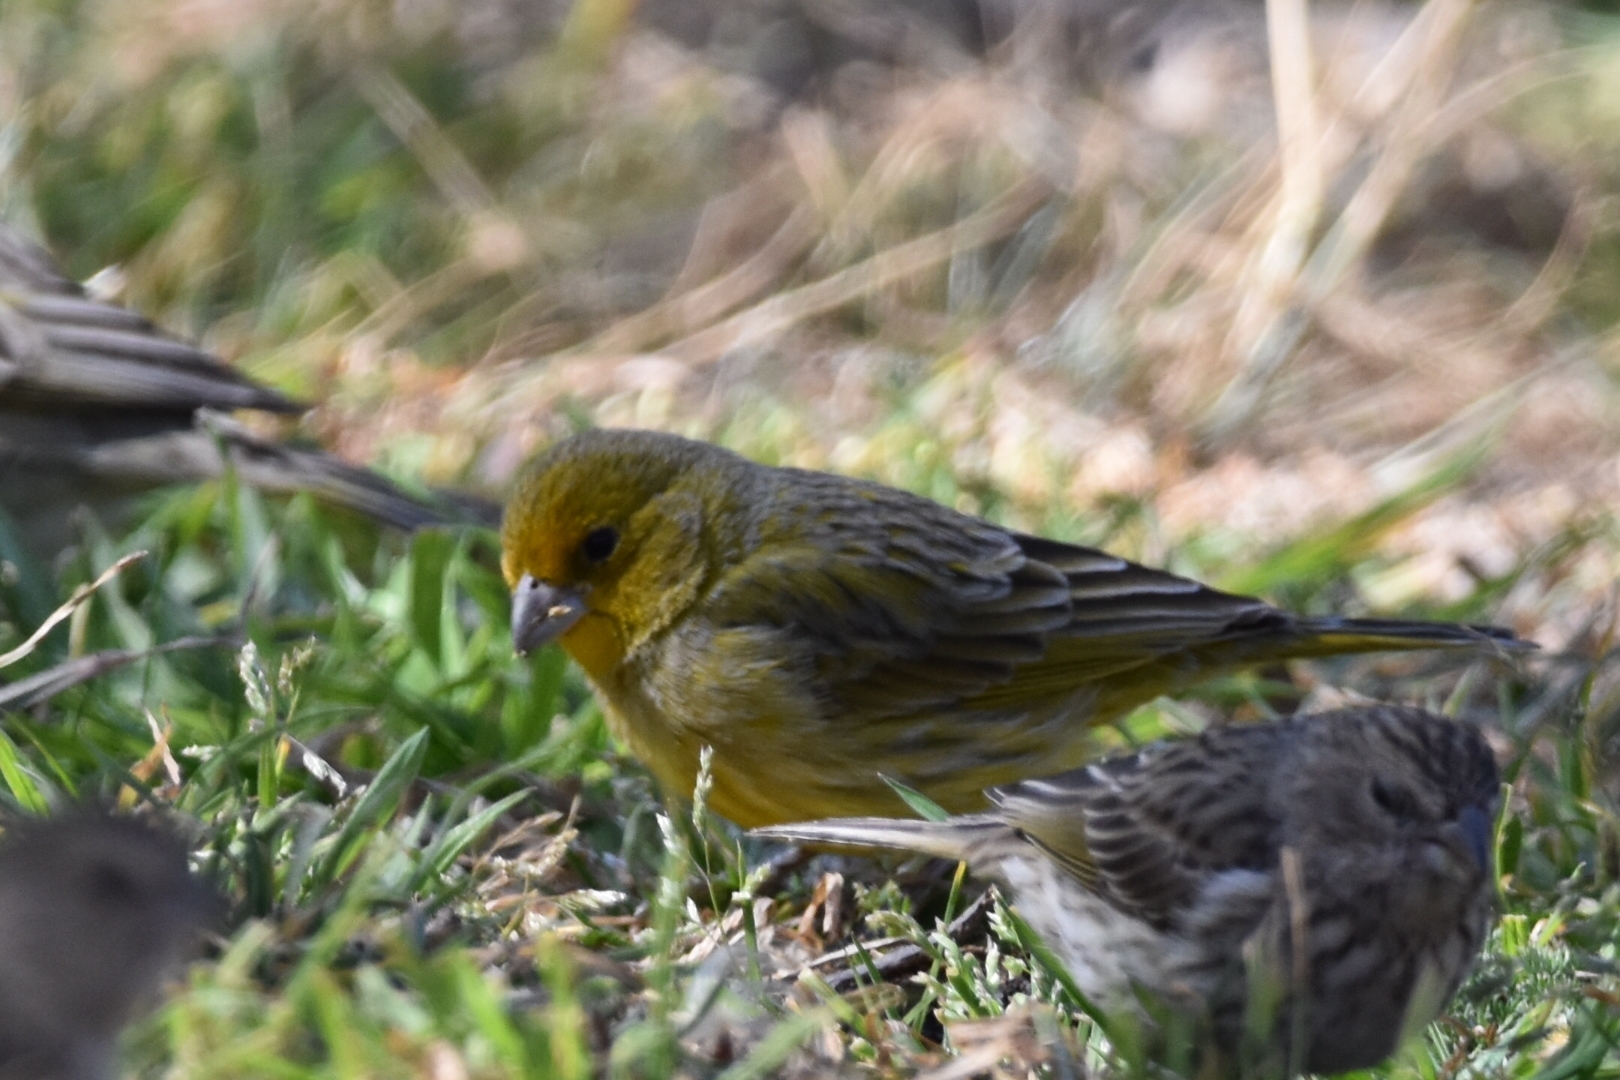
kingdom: Animalia
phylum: Chordata
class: Aves
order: Passeriformes
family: Thraupidae
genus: Sicalis
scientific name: Sicalis flaveola
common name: Saffron finch
